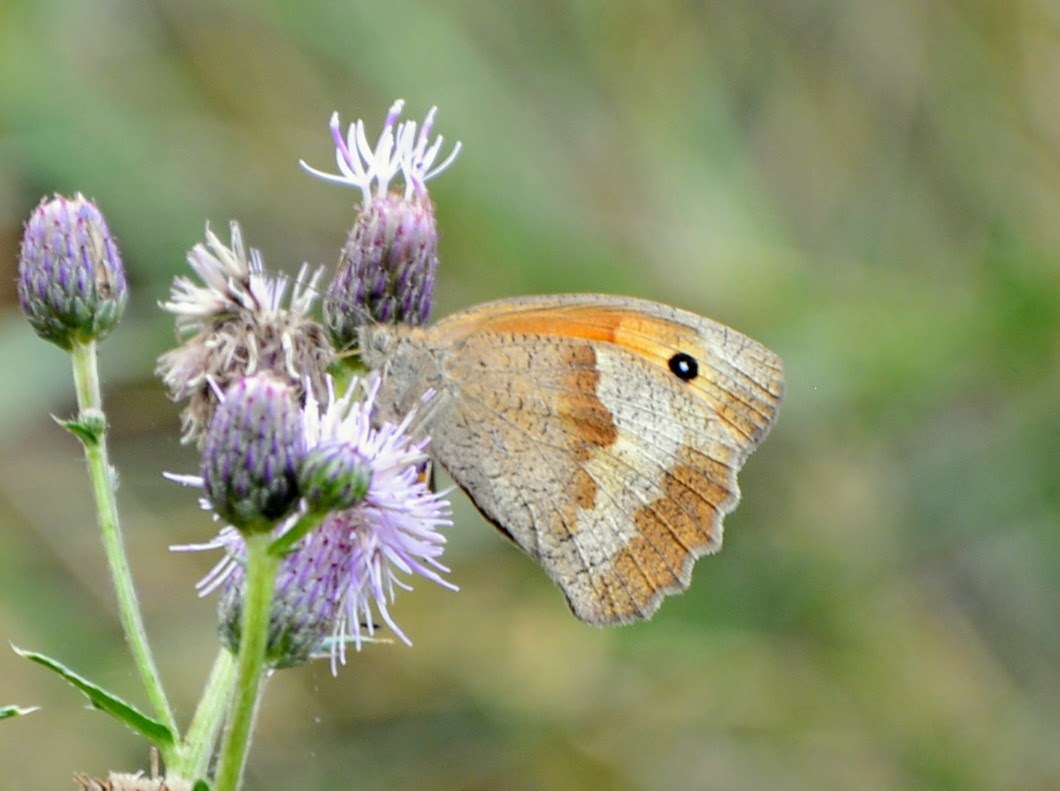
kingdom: Animalia
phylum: Arthropoda
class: Insecta
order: Lepidoptera
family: Nymphalidae
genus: Maniola
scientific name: Maniola jurtina
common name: Meadow brown
